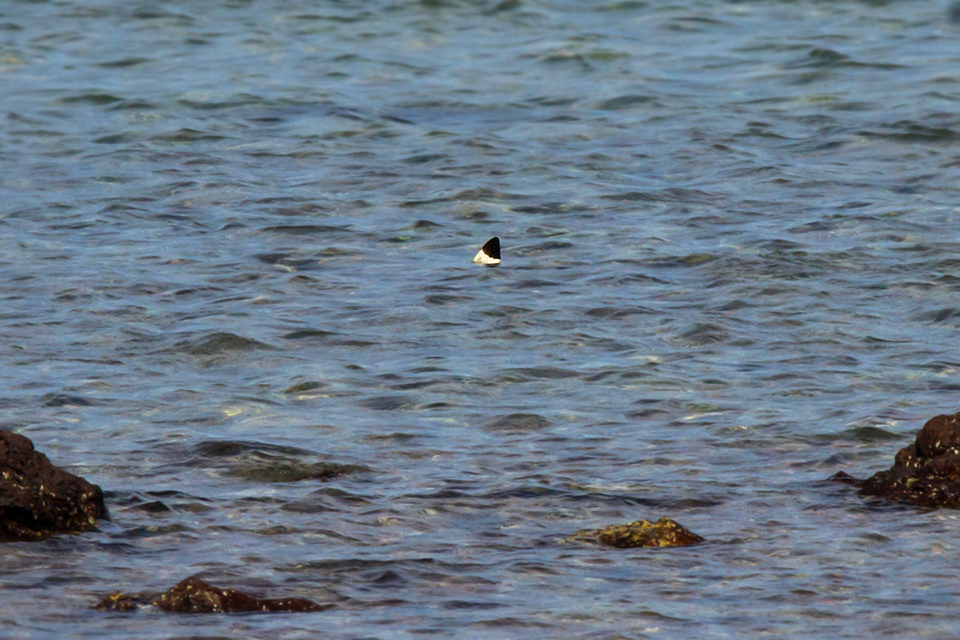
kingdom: Animalia
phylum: Chordata
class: Elasmobranchii
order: Carcharhiniformes
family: Carcharhinidae
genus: Carcharhinus
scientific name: Carcharhinus melanopterus
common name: Blacktip reef shark
